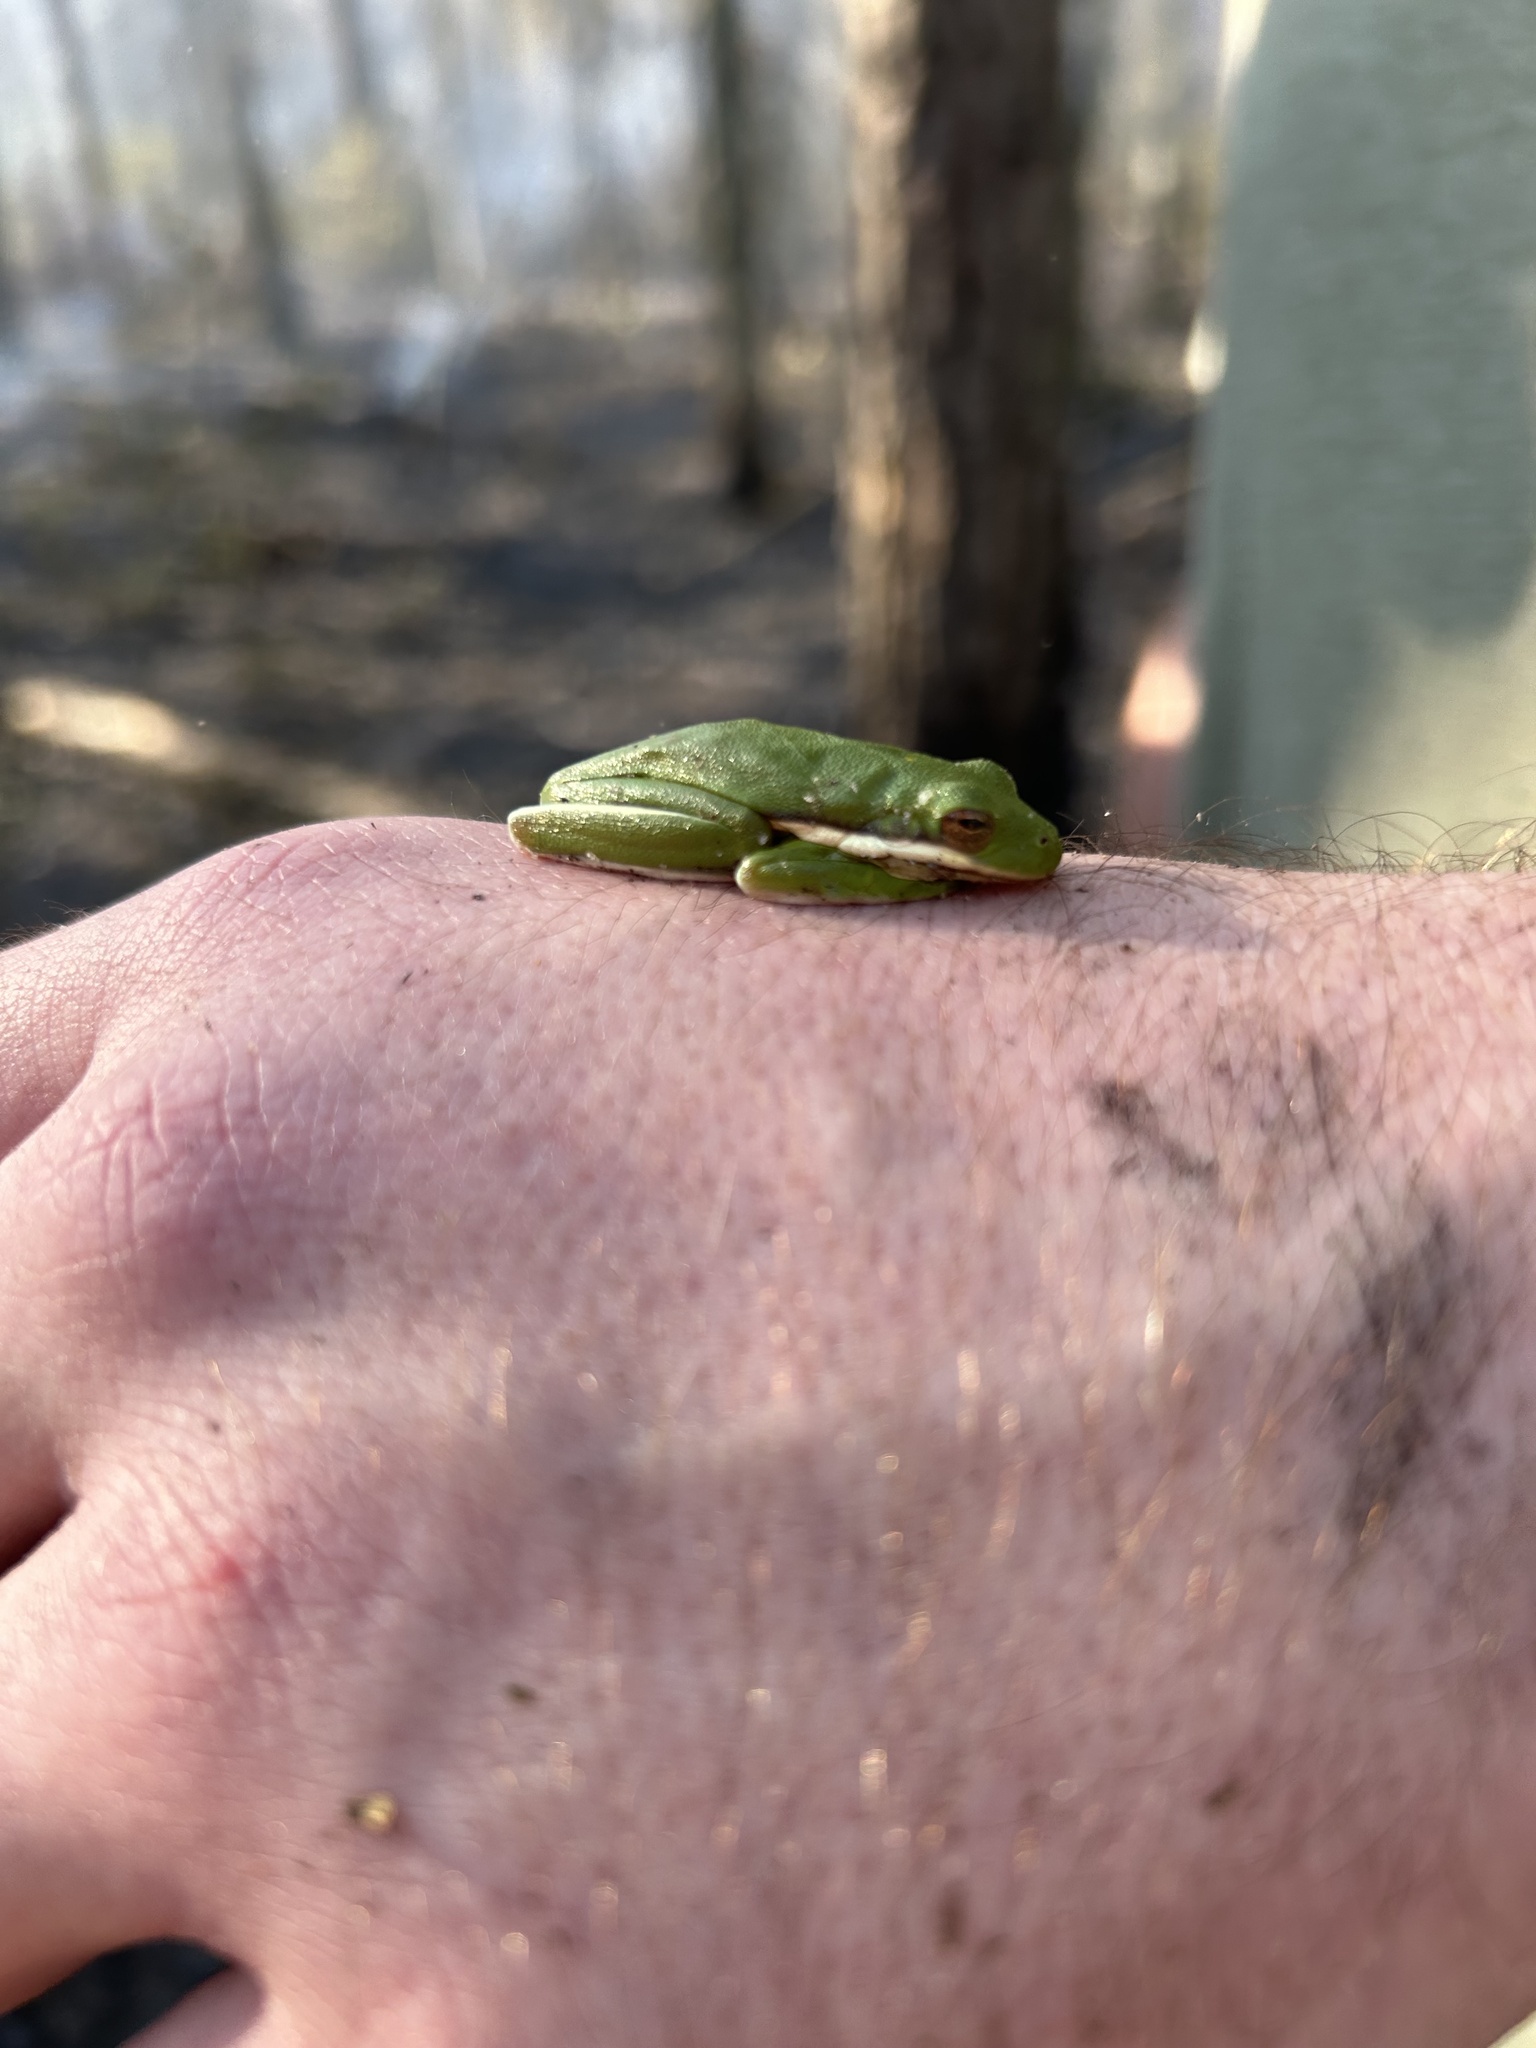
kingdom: Animalia
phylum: Chordata
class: Amphibia
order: Anura
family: Hylidae
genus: Dryophytes
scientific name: Dryophytes cinereus
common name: Green treefrog
